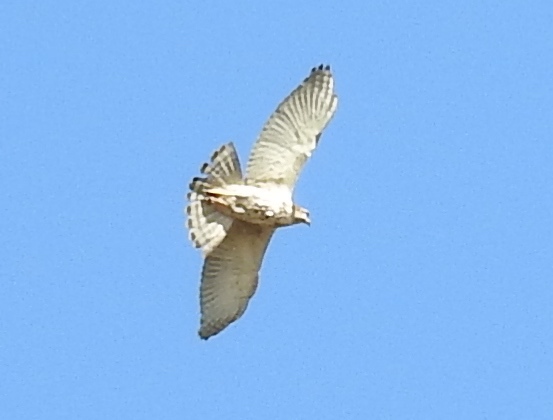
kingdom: Animalia
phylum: Chordata
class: Aves
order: Accipitriformes
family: Accipitridae
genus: Buteo
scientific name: Buteo nitidus
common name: Grey-lined hawk
